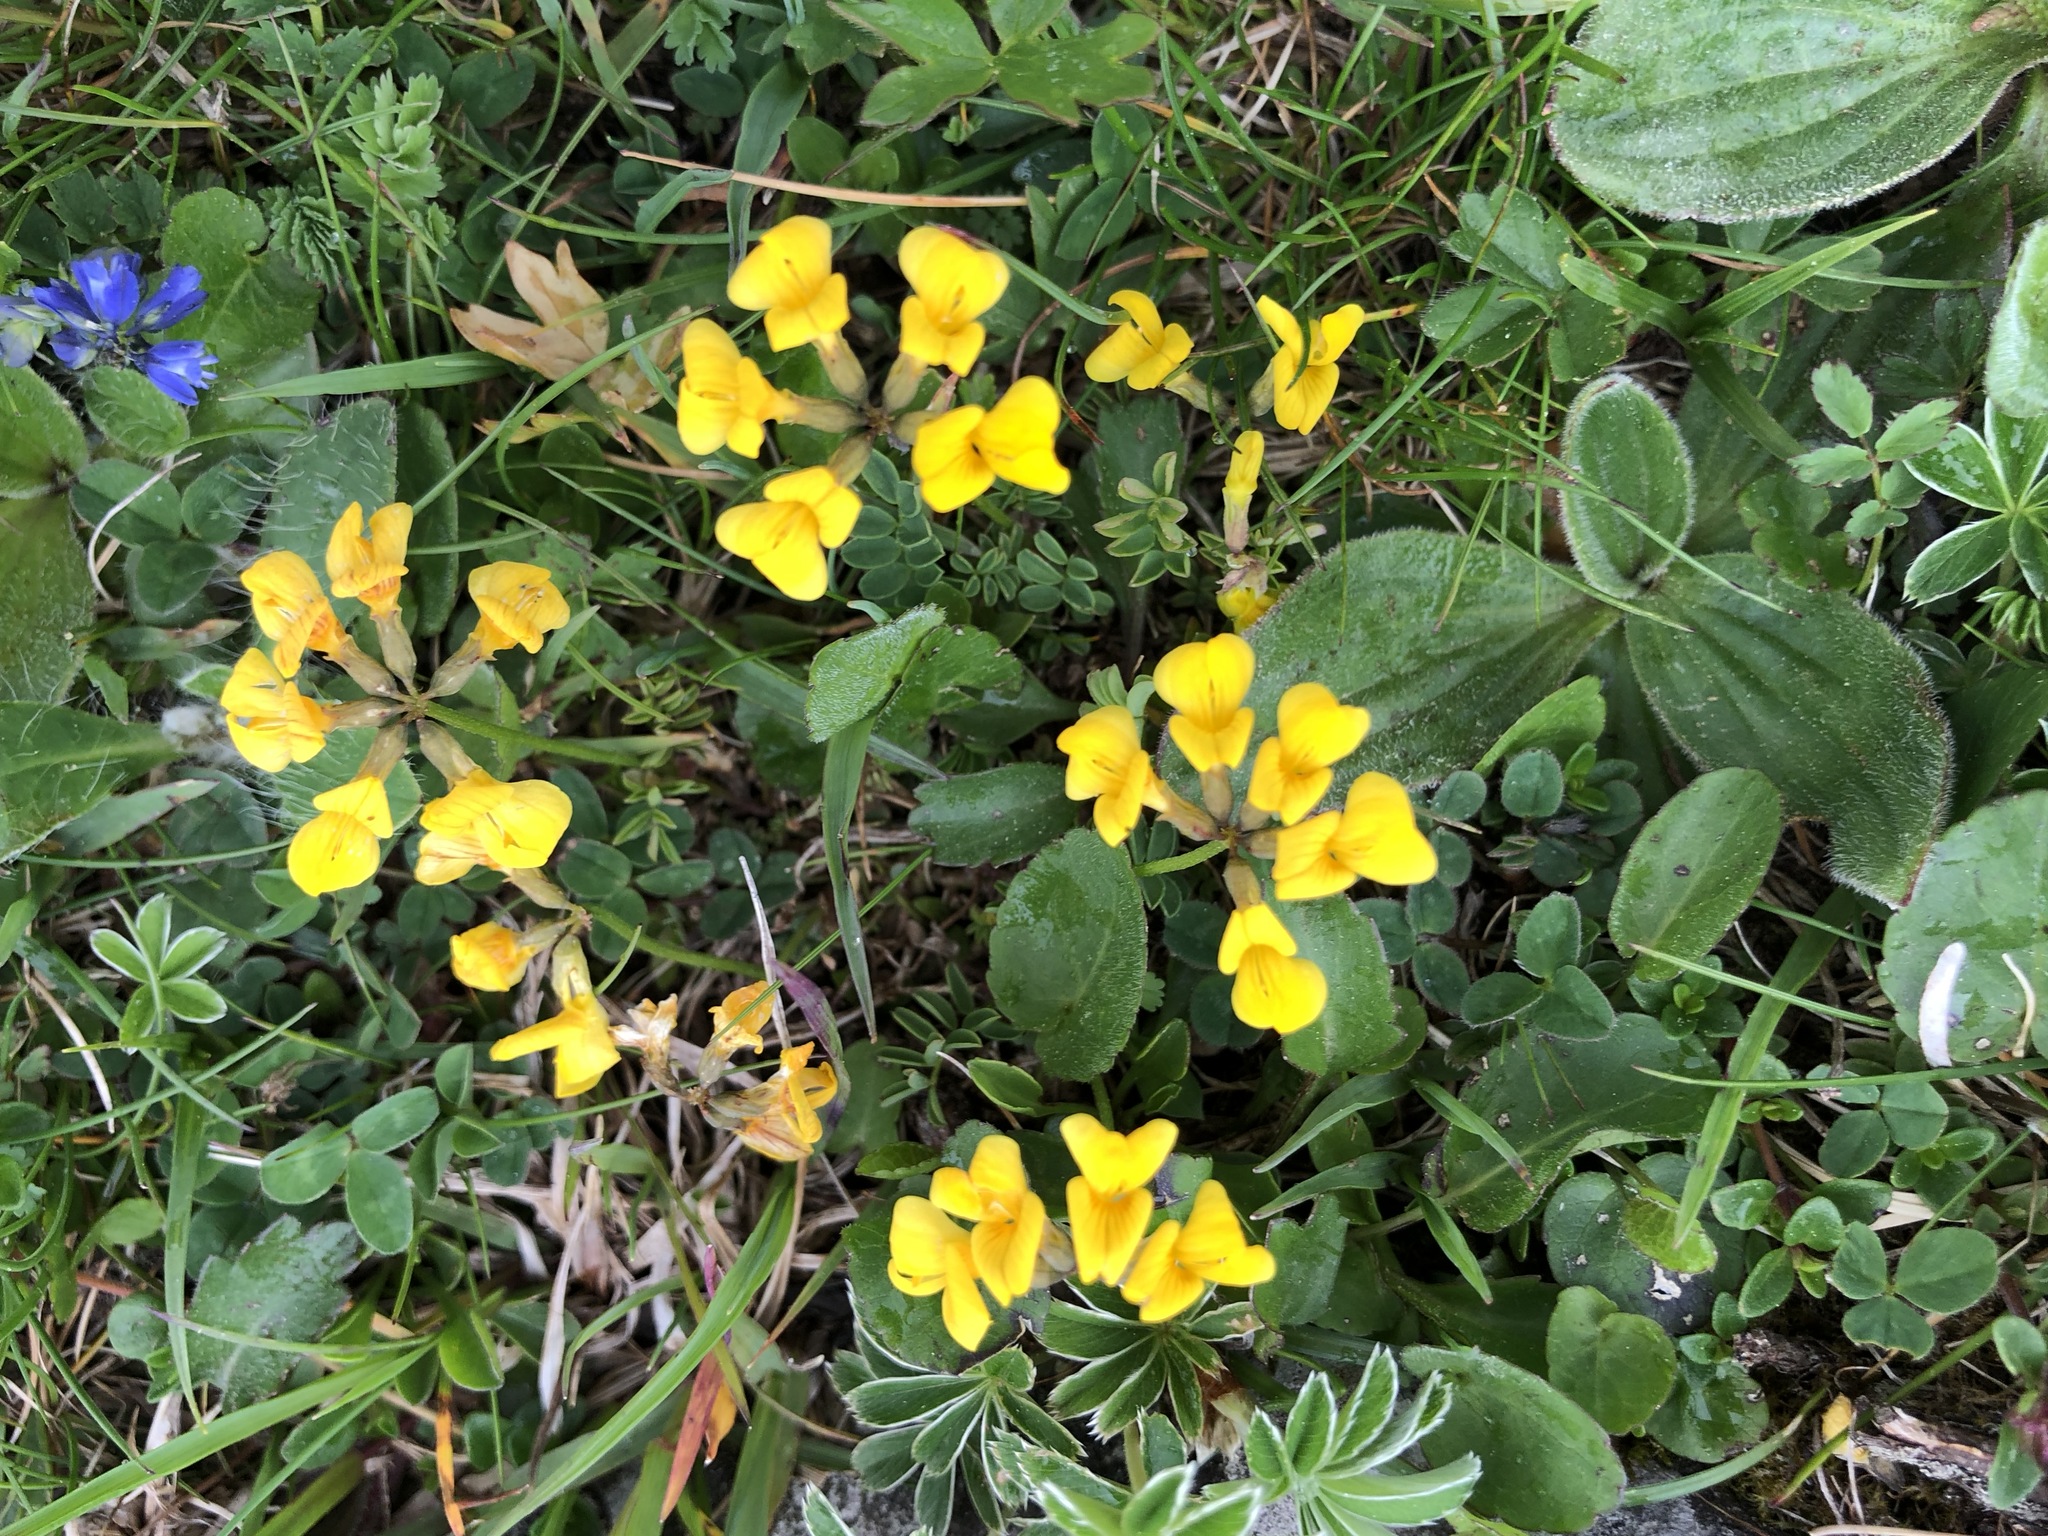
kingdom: Plantae
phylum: Tracheophyta
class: Magnoliopsida
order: Fabales
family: Fabaceae
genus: Hippocrepis
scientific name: Hippocrepis comosa
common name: Horseshoe vetch
